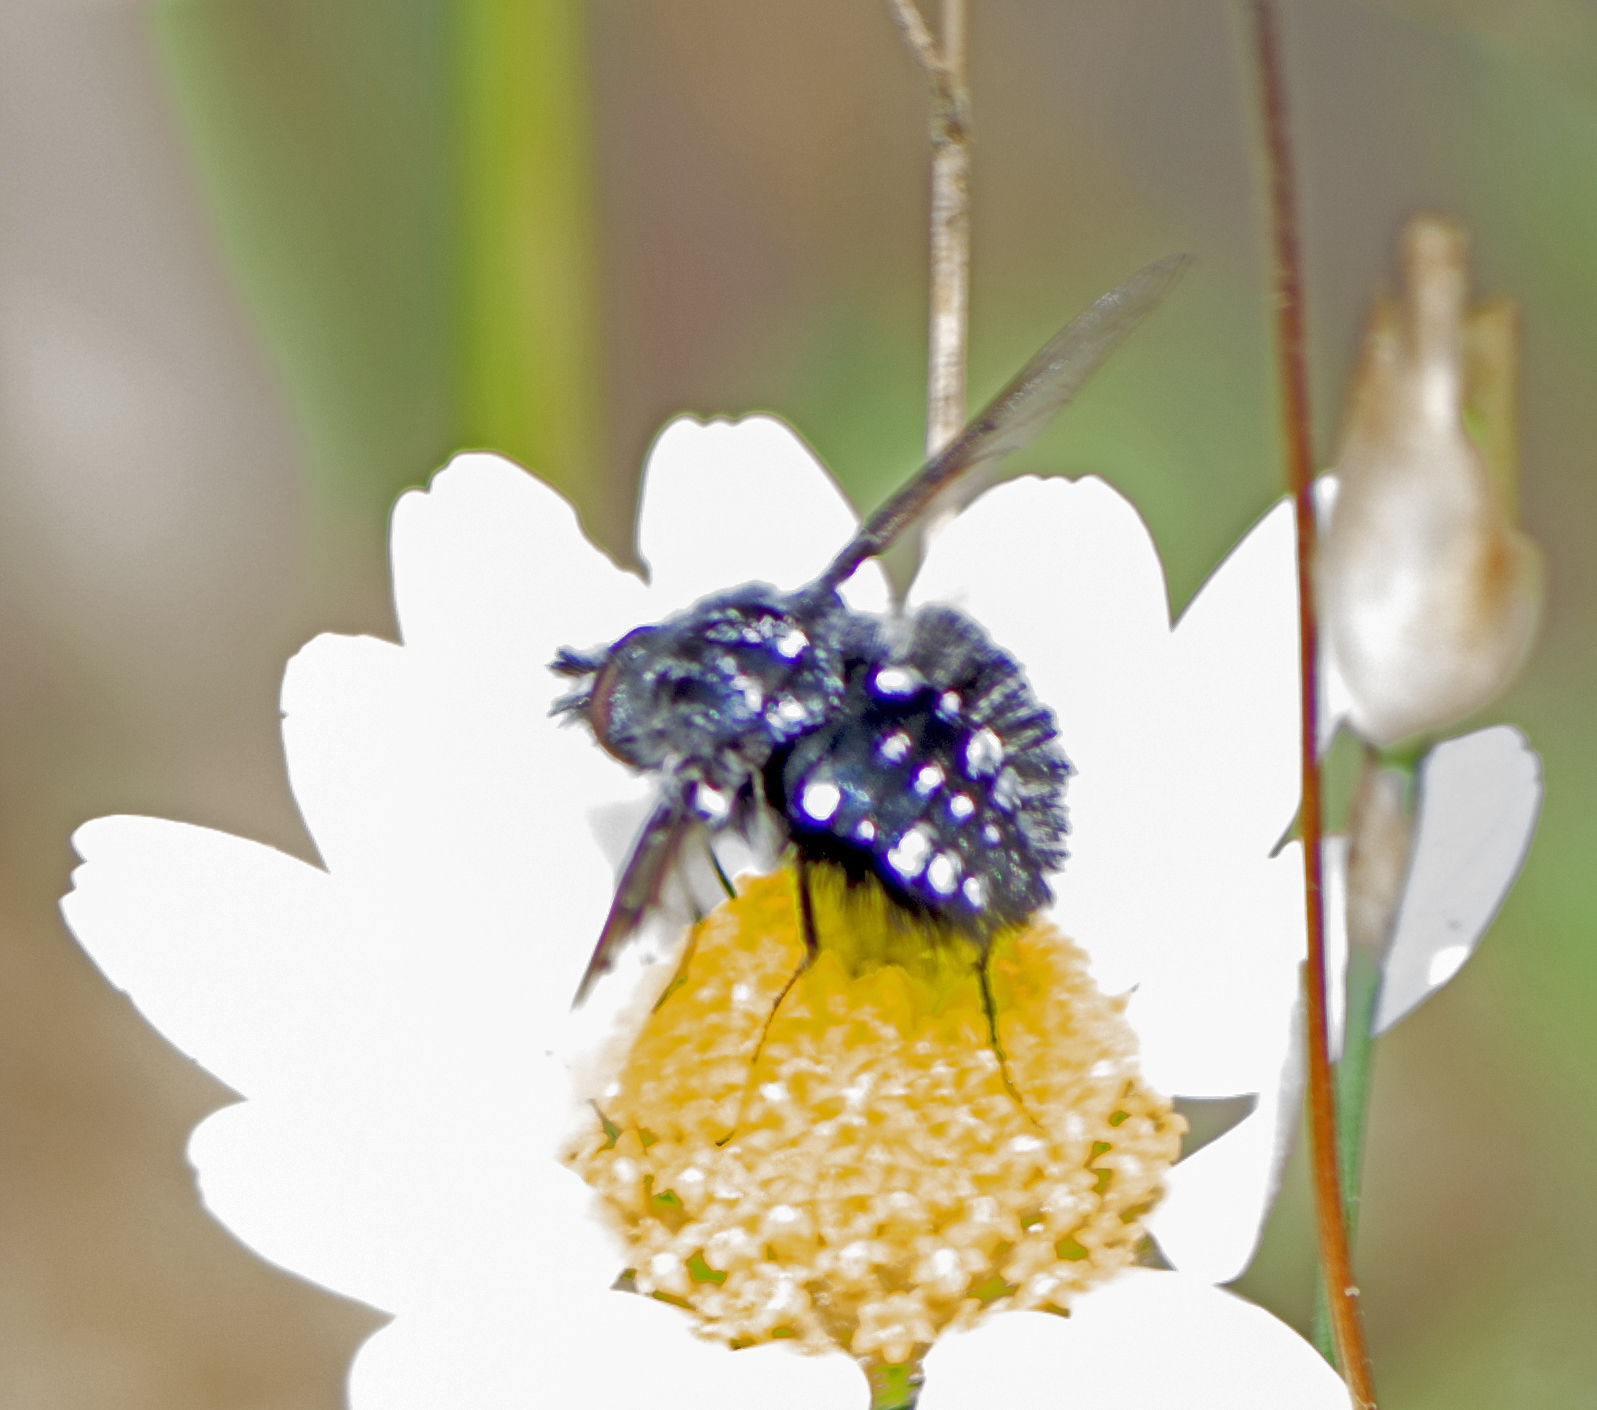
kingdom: Animalia
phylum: Arthropoda
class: Insecta
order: Diptera
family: Bombyliidae
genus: Bombylella
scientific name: Bombylella atra
